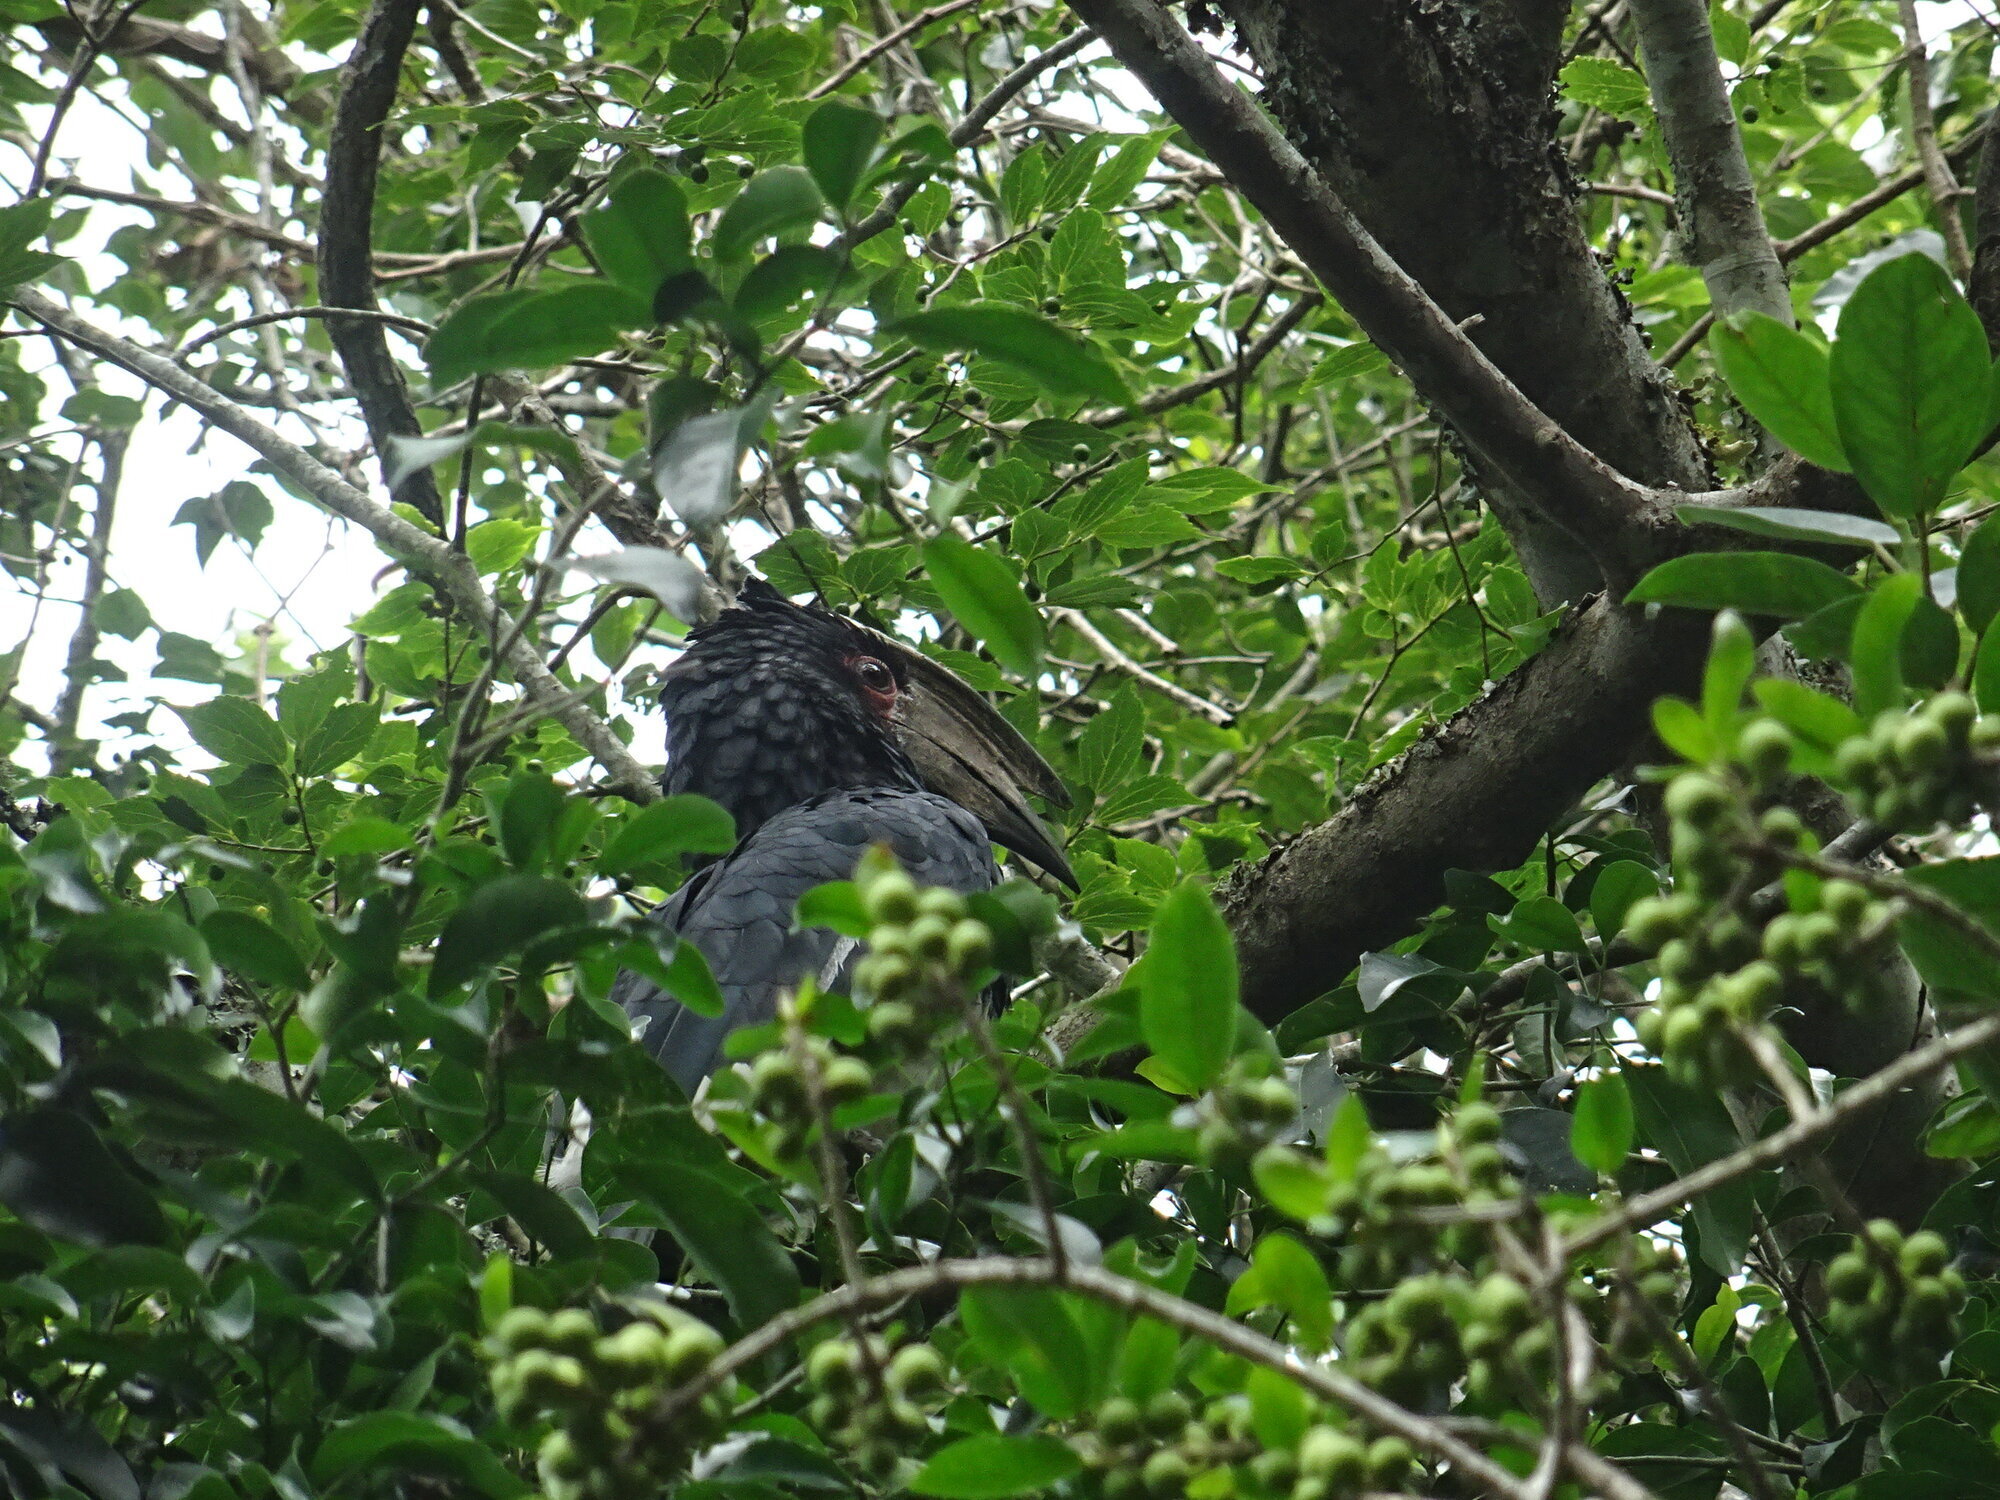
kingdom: Animalia
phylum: Chordata
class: Aves
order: Bucerotiformes
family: Bucerotidae
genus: Bycanistes
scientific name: Bycanistes bucinator
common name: Trumpeter hornbill
